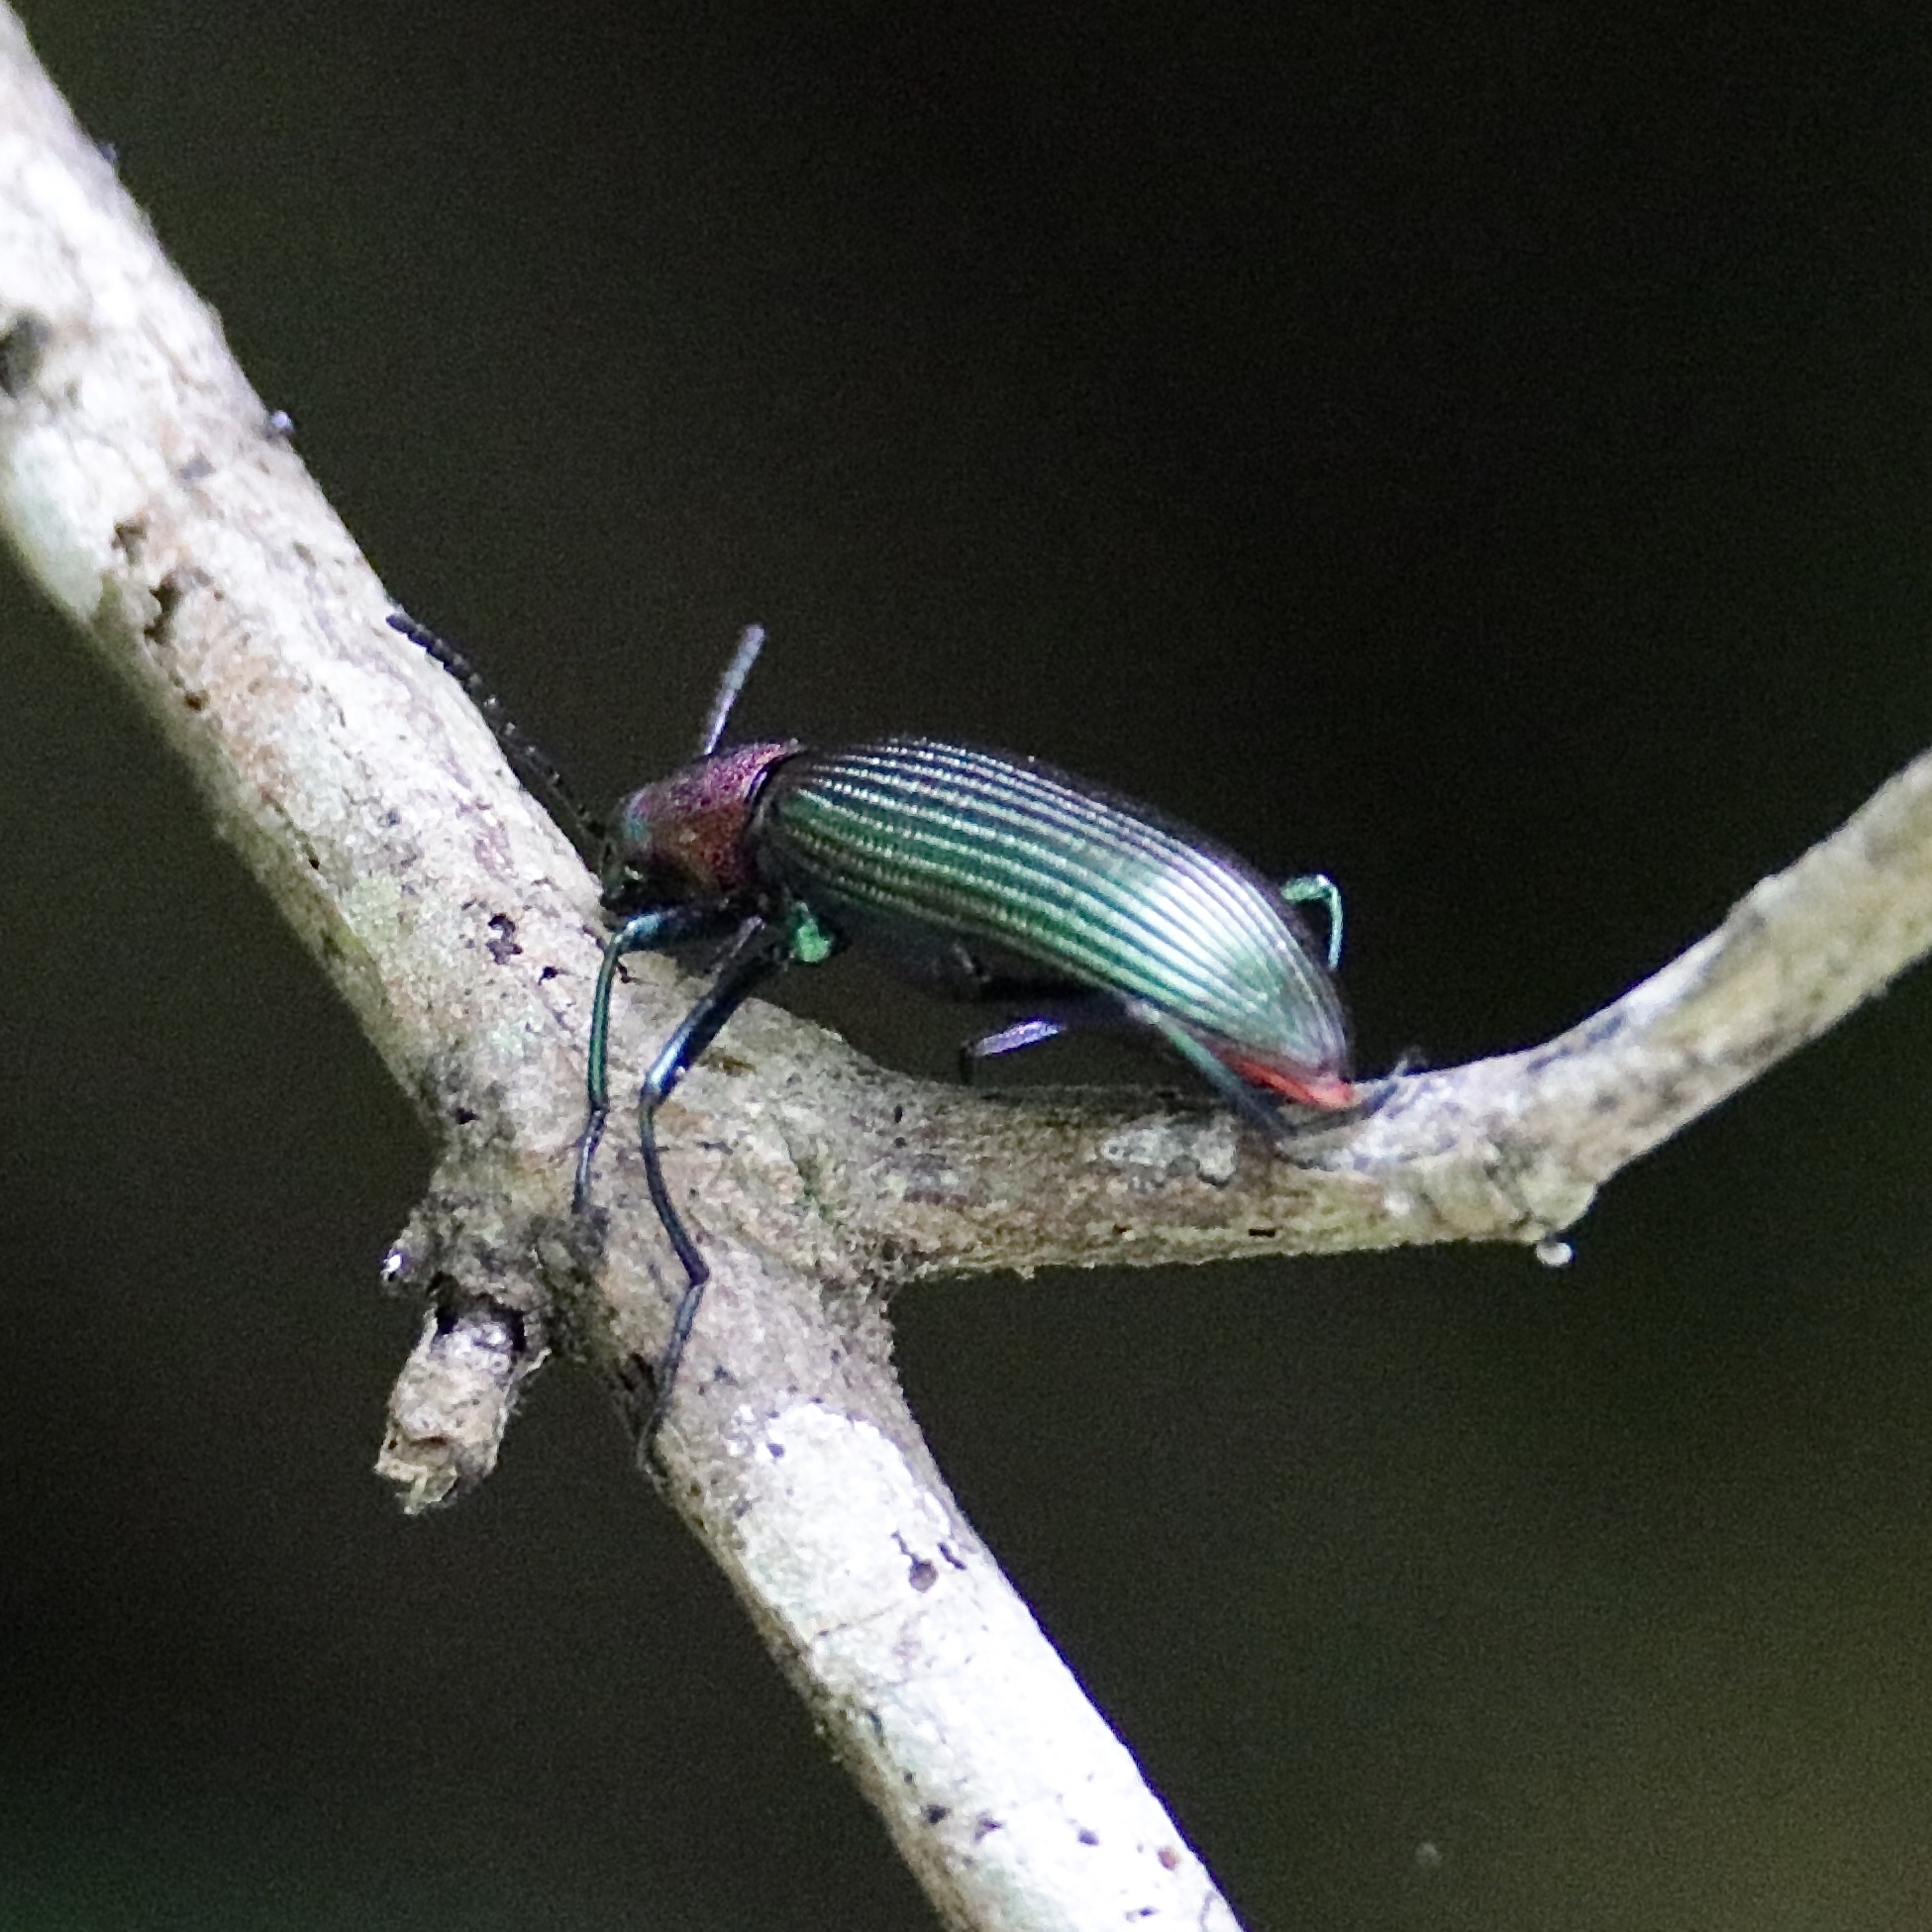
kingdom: Animalia
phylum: Arthropoda
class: Insecta
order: Coleoptera
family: Tenebrionidae
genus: Strongylium
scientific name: Strongylium auratum
